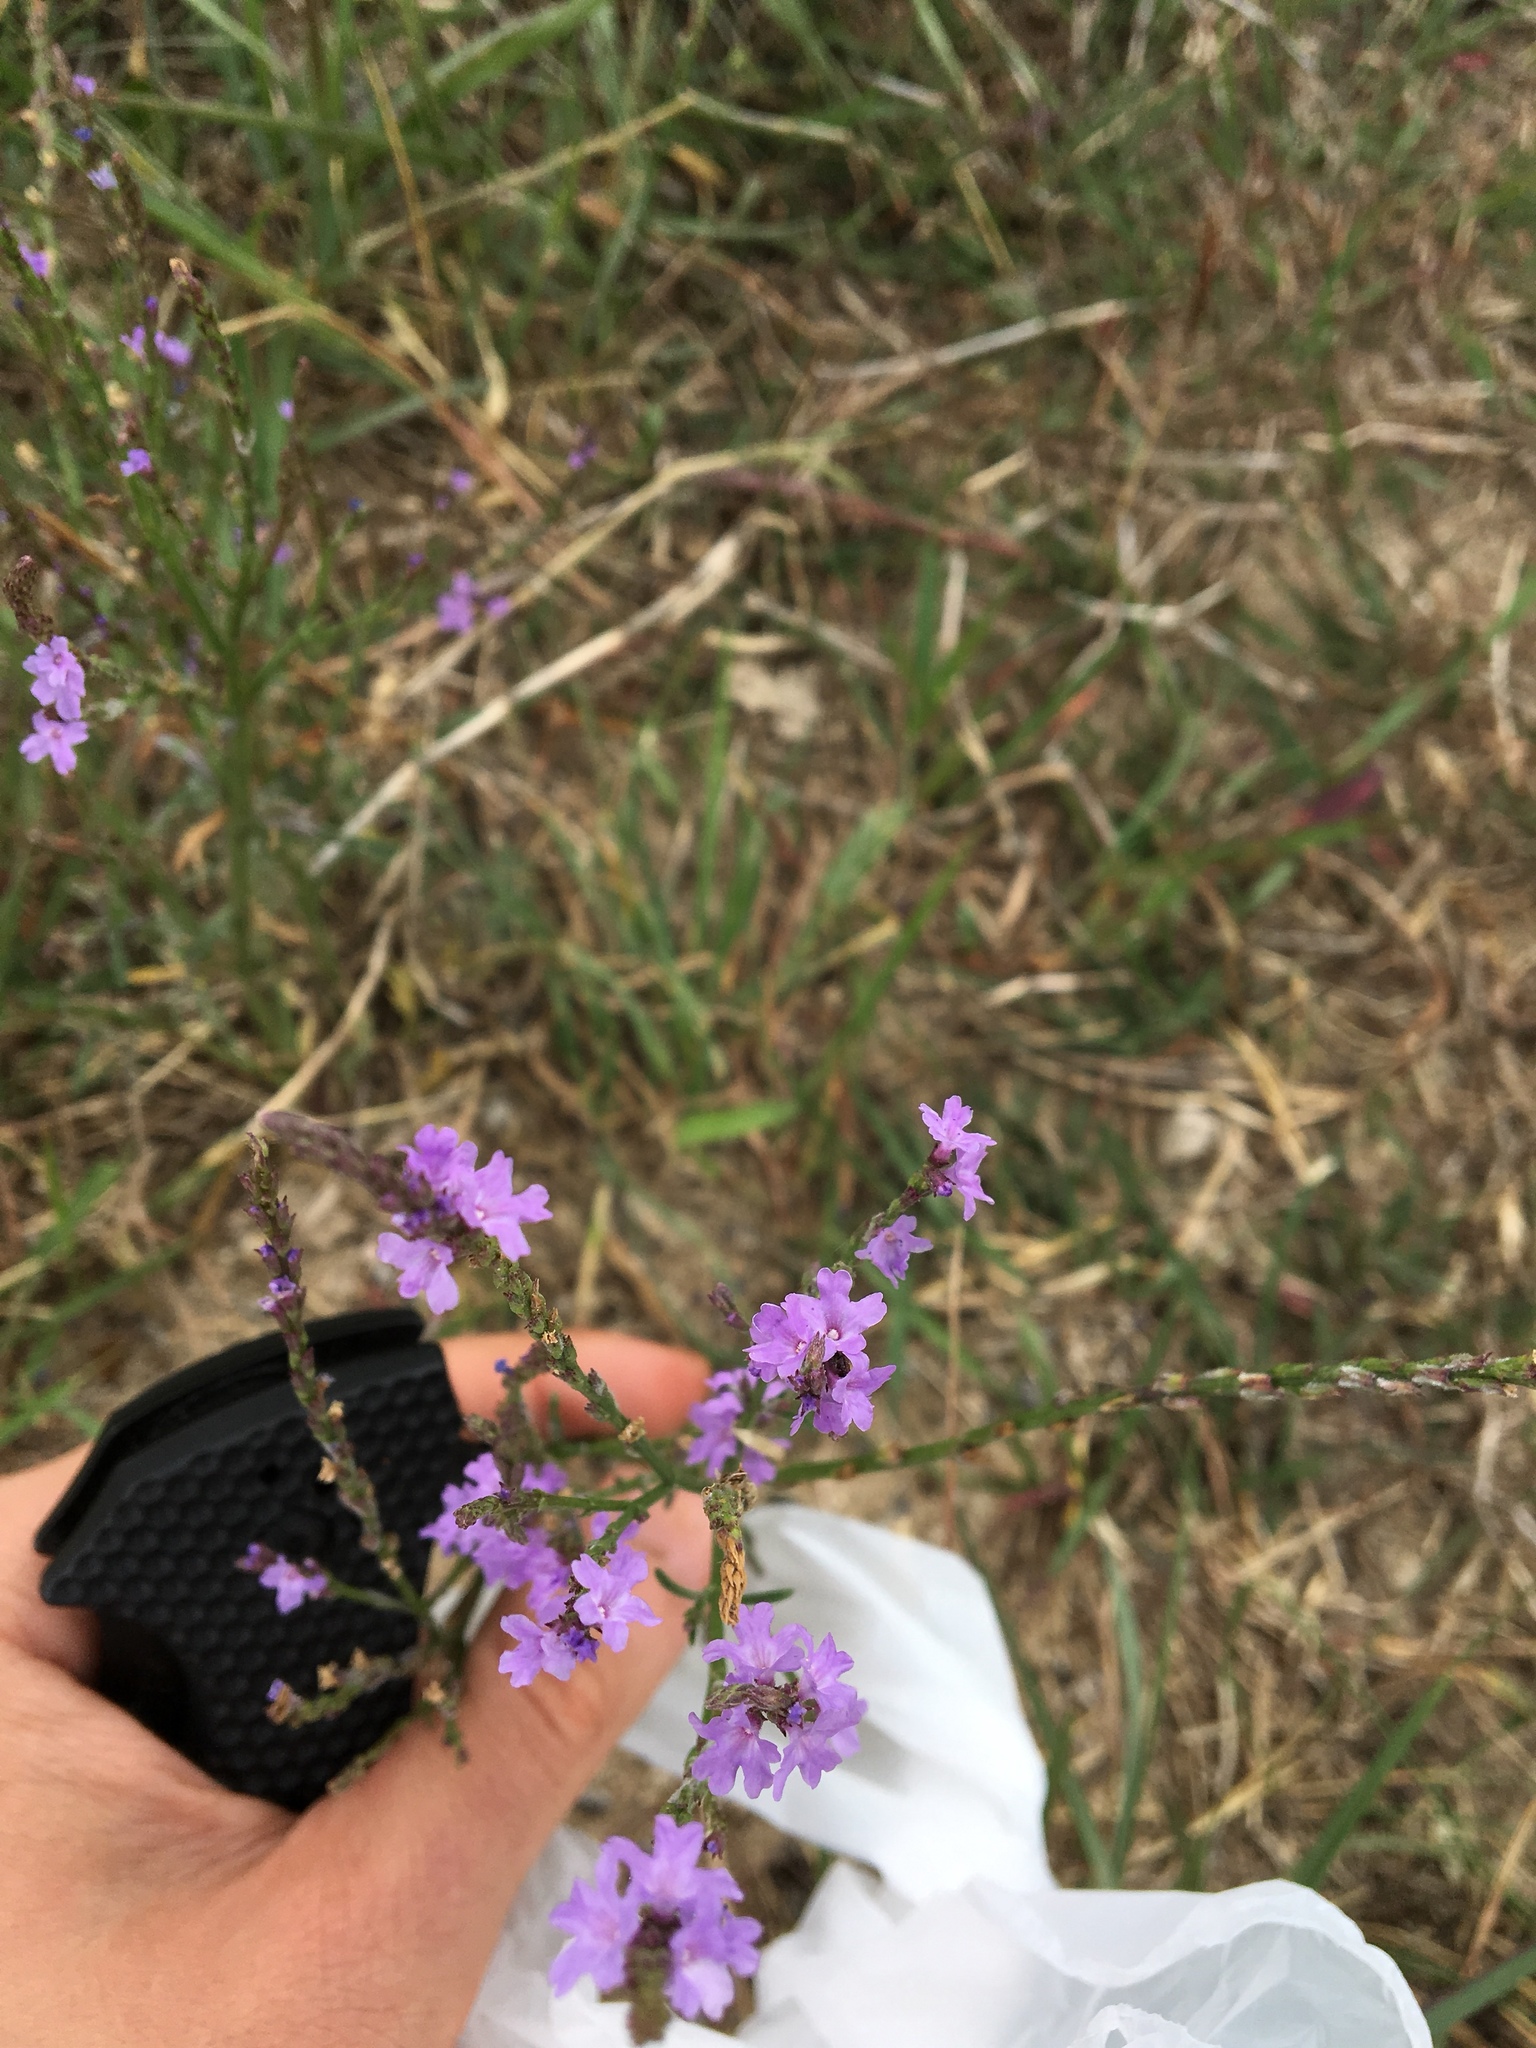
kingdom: Plantae
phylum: Tracheophyta
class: Magnoliopsida
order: Lamiales
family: Verbenaceae
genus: Verbena
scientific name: Verbena halei
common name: Texas vervain
